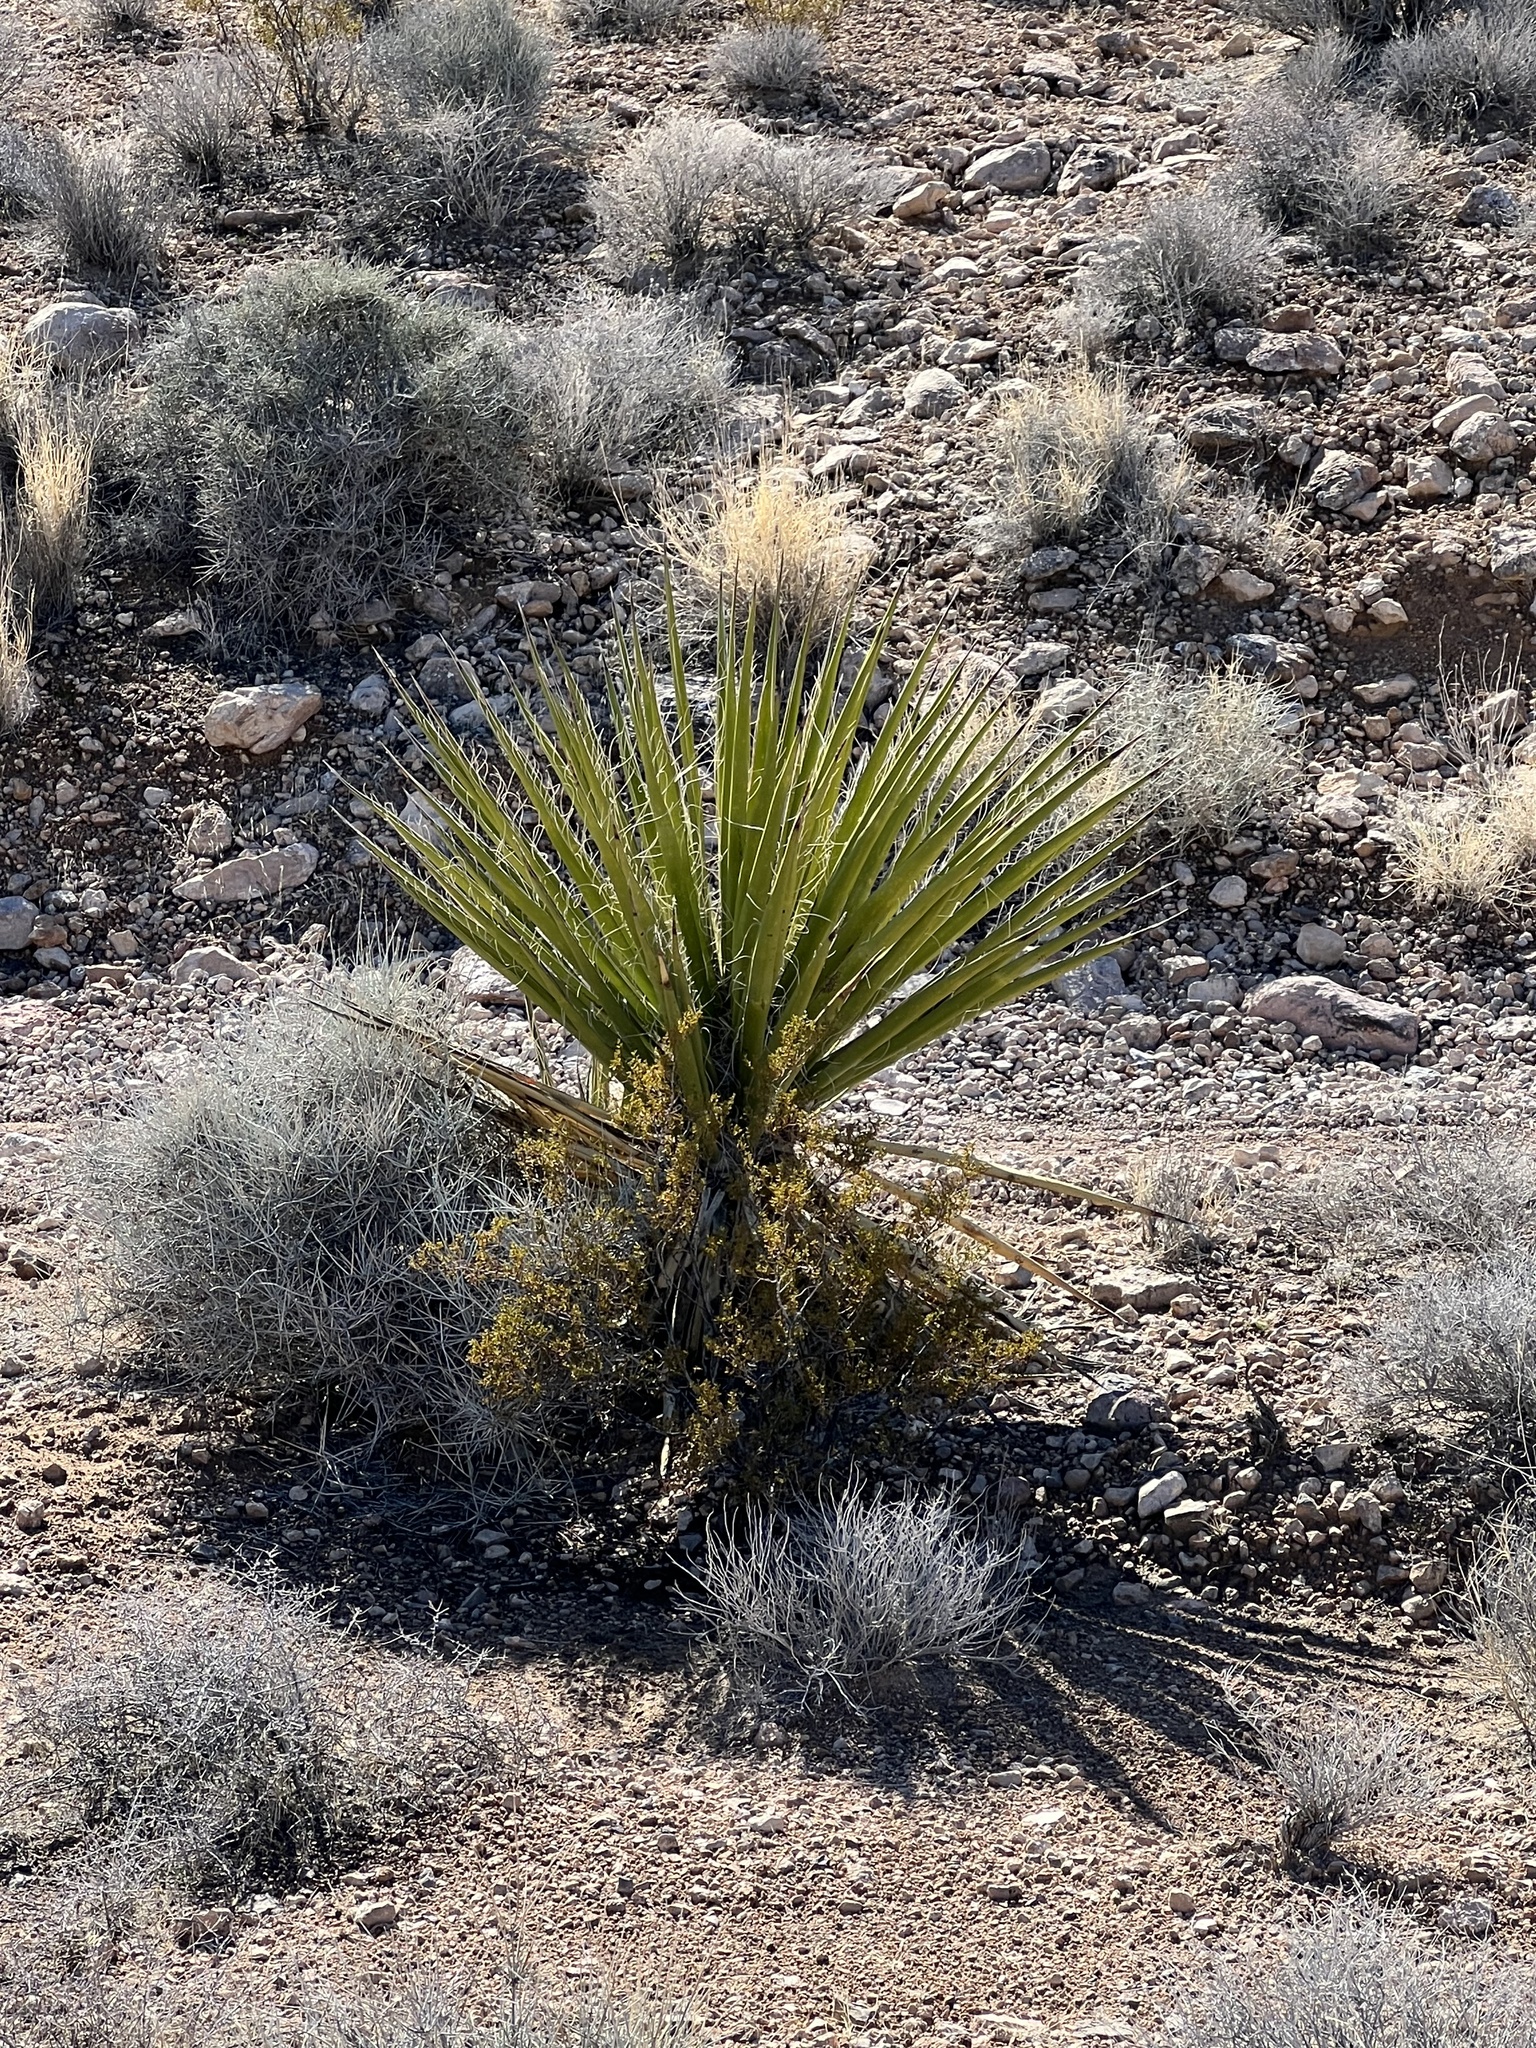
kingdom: Plantae
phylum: Tracheophyta
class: Liliopsida
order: Asparagales
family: Asparagaceae
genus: Yucca
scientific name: Yucca schidigera
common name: Mojave yucca
